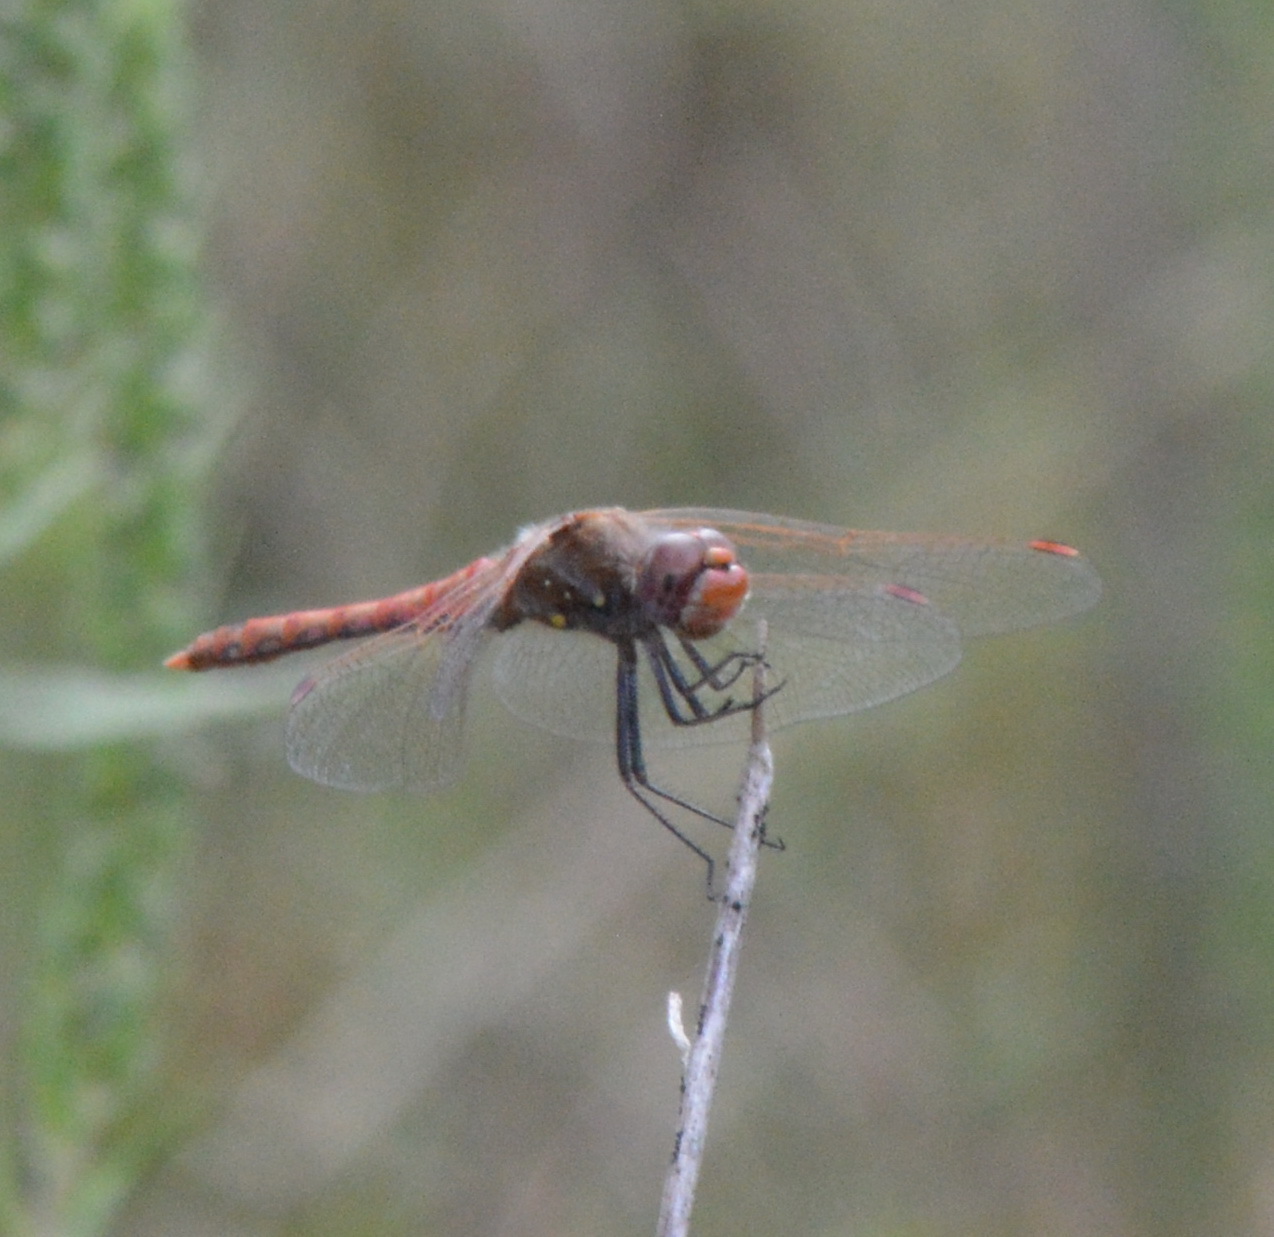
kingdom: Animalia
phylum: Arthropoda
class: Insecta
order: Odonata
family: Libellulidae
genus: Sympetrum
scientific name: Sympetrum corruptum
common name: Variegated meadowhawk
